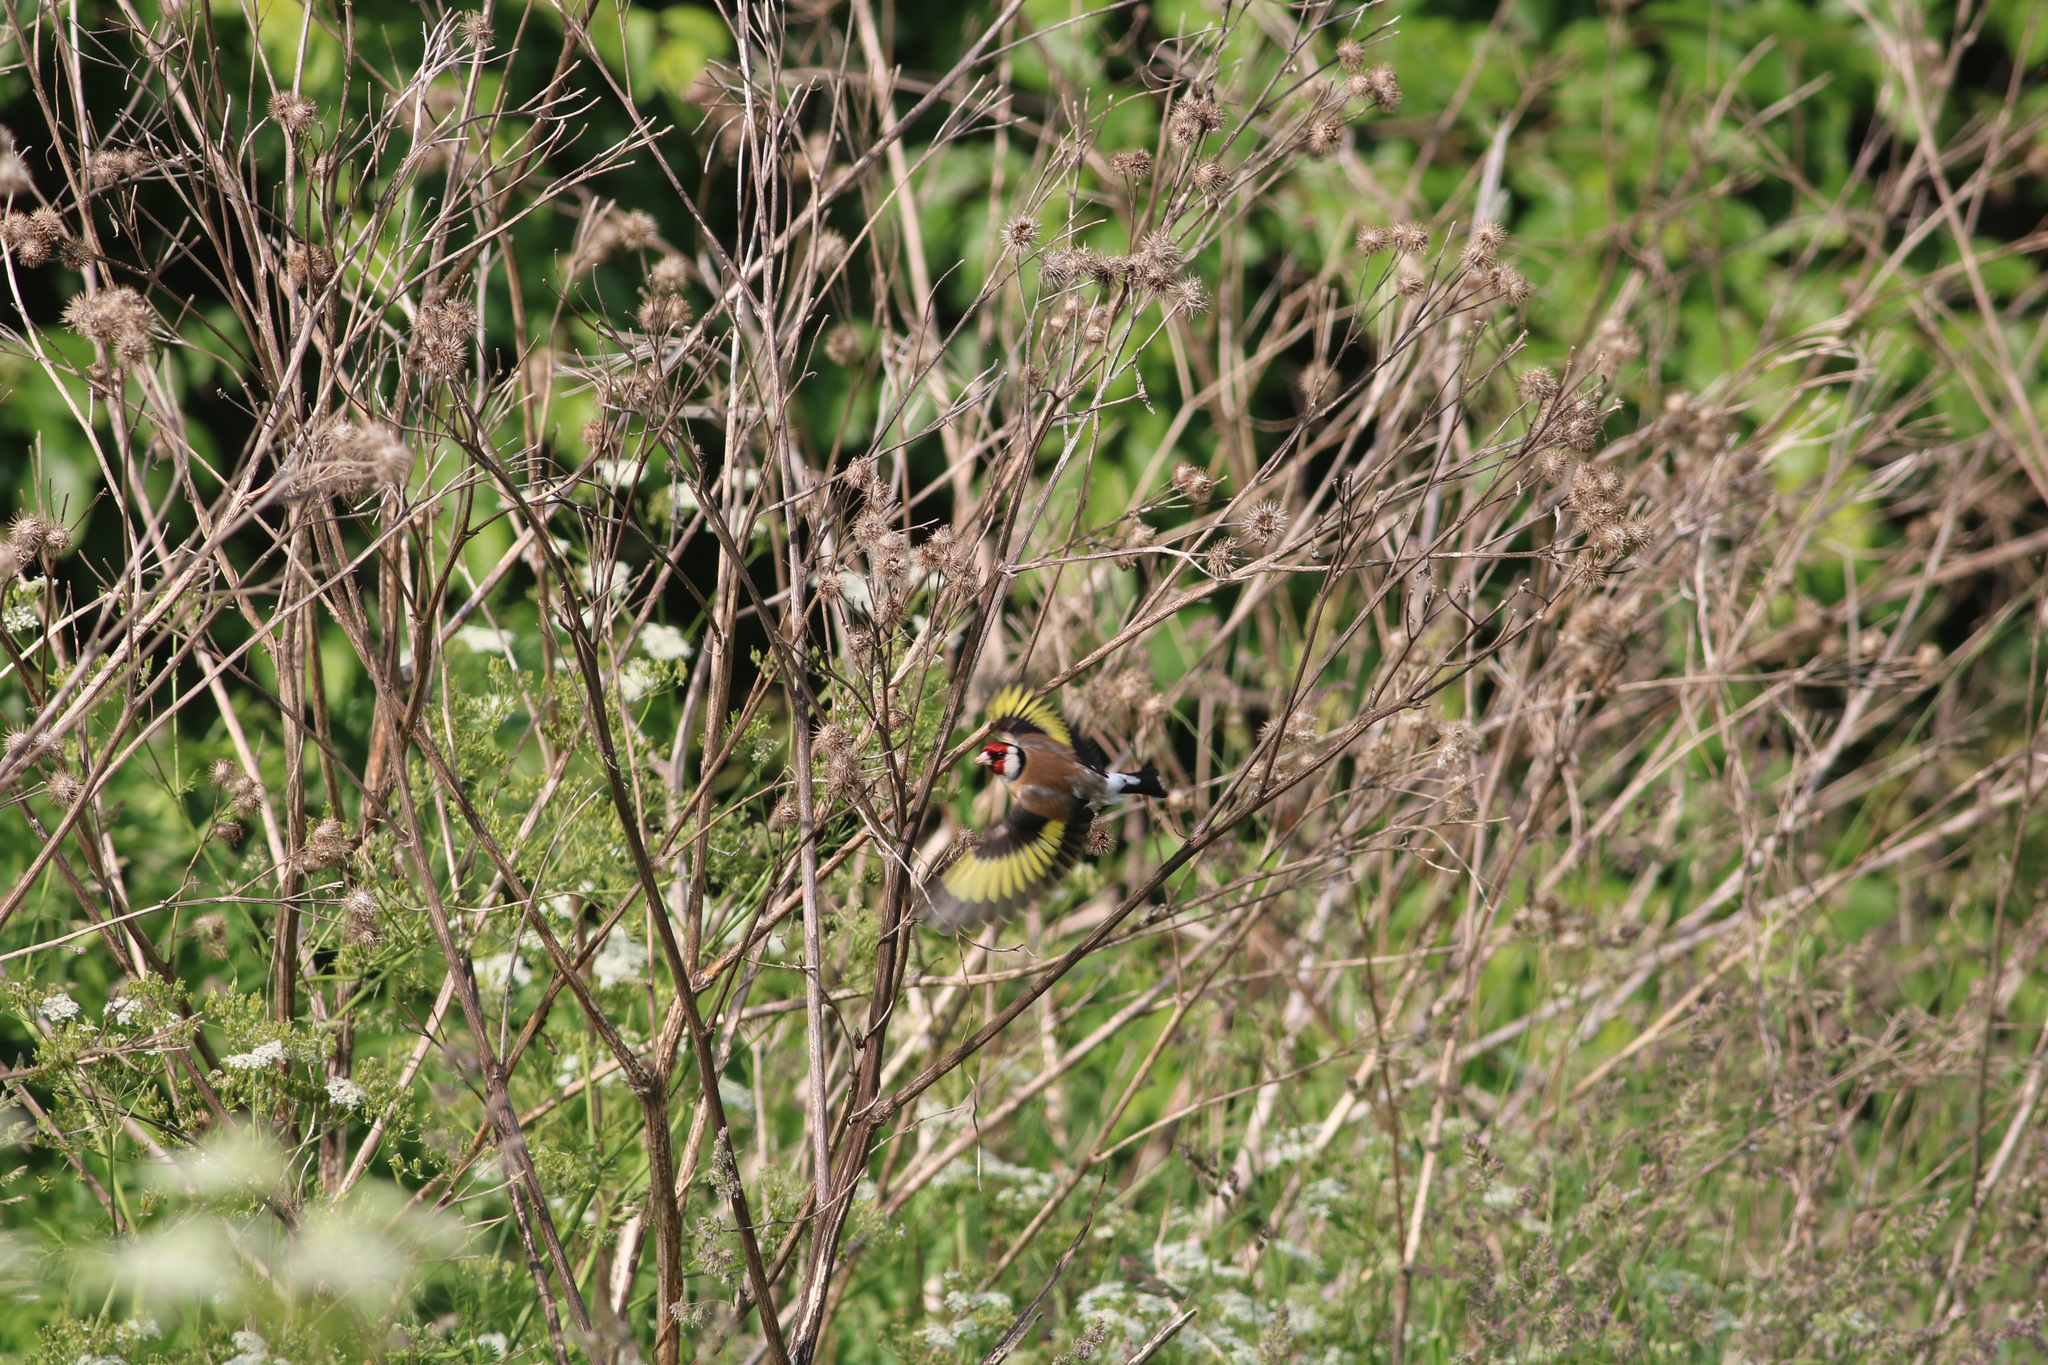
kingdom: Animalia
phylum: Chordata
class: Aves
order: Passeriformes
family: Fringillidae
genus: Carduelis
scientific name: Carduelis carduelis
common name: European goldfinch
